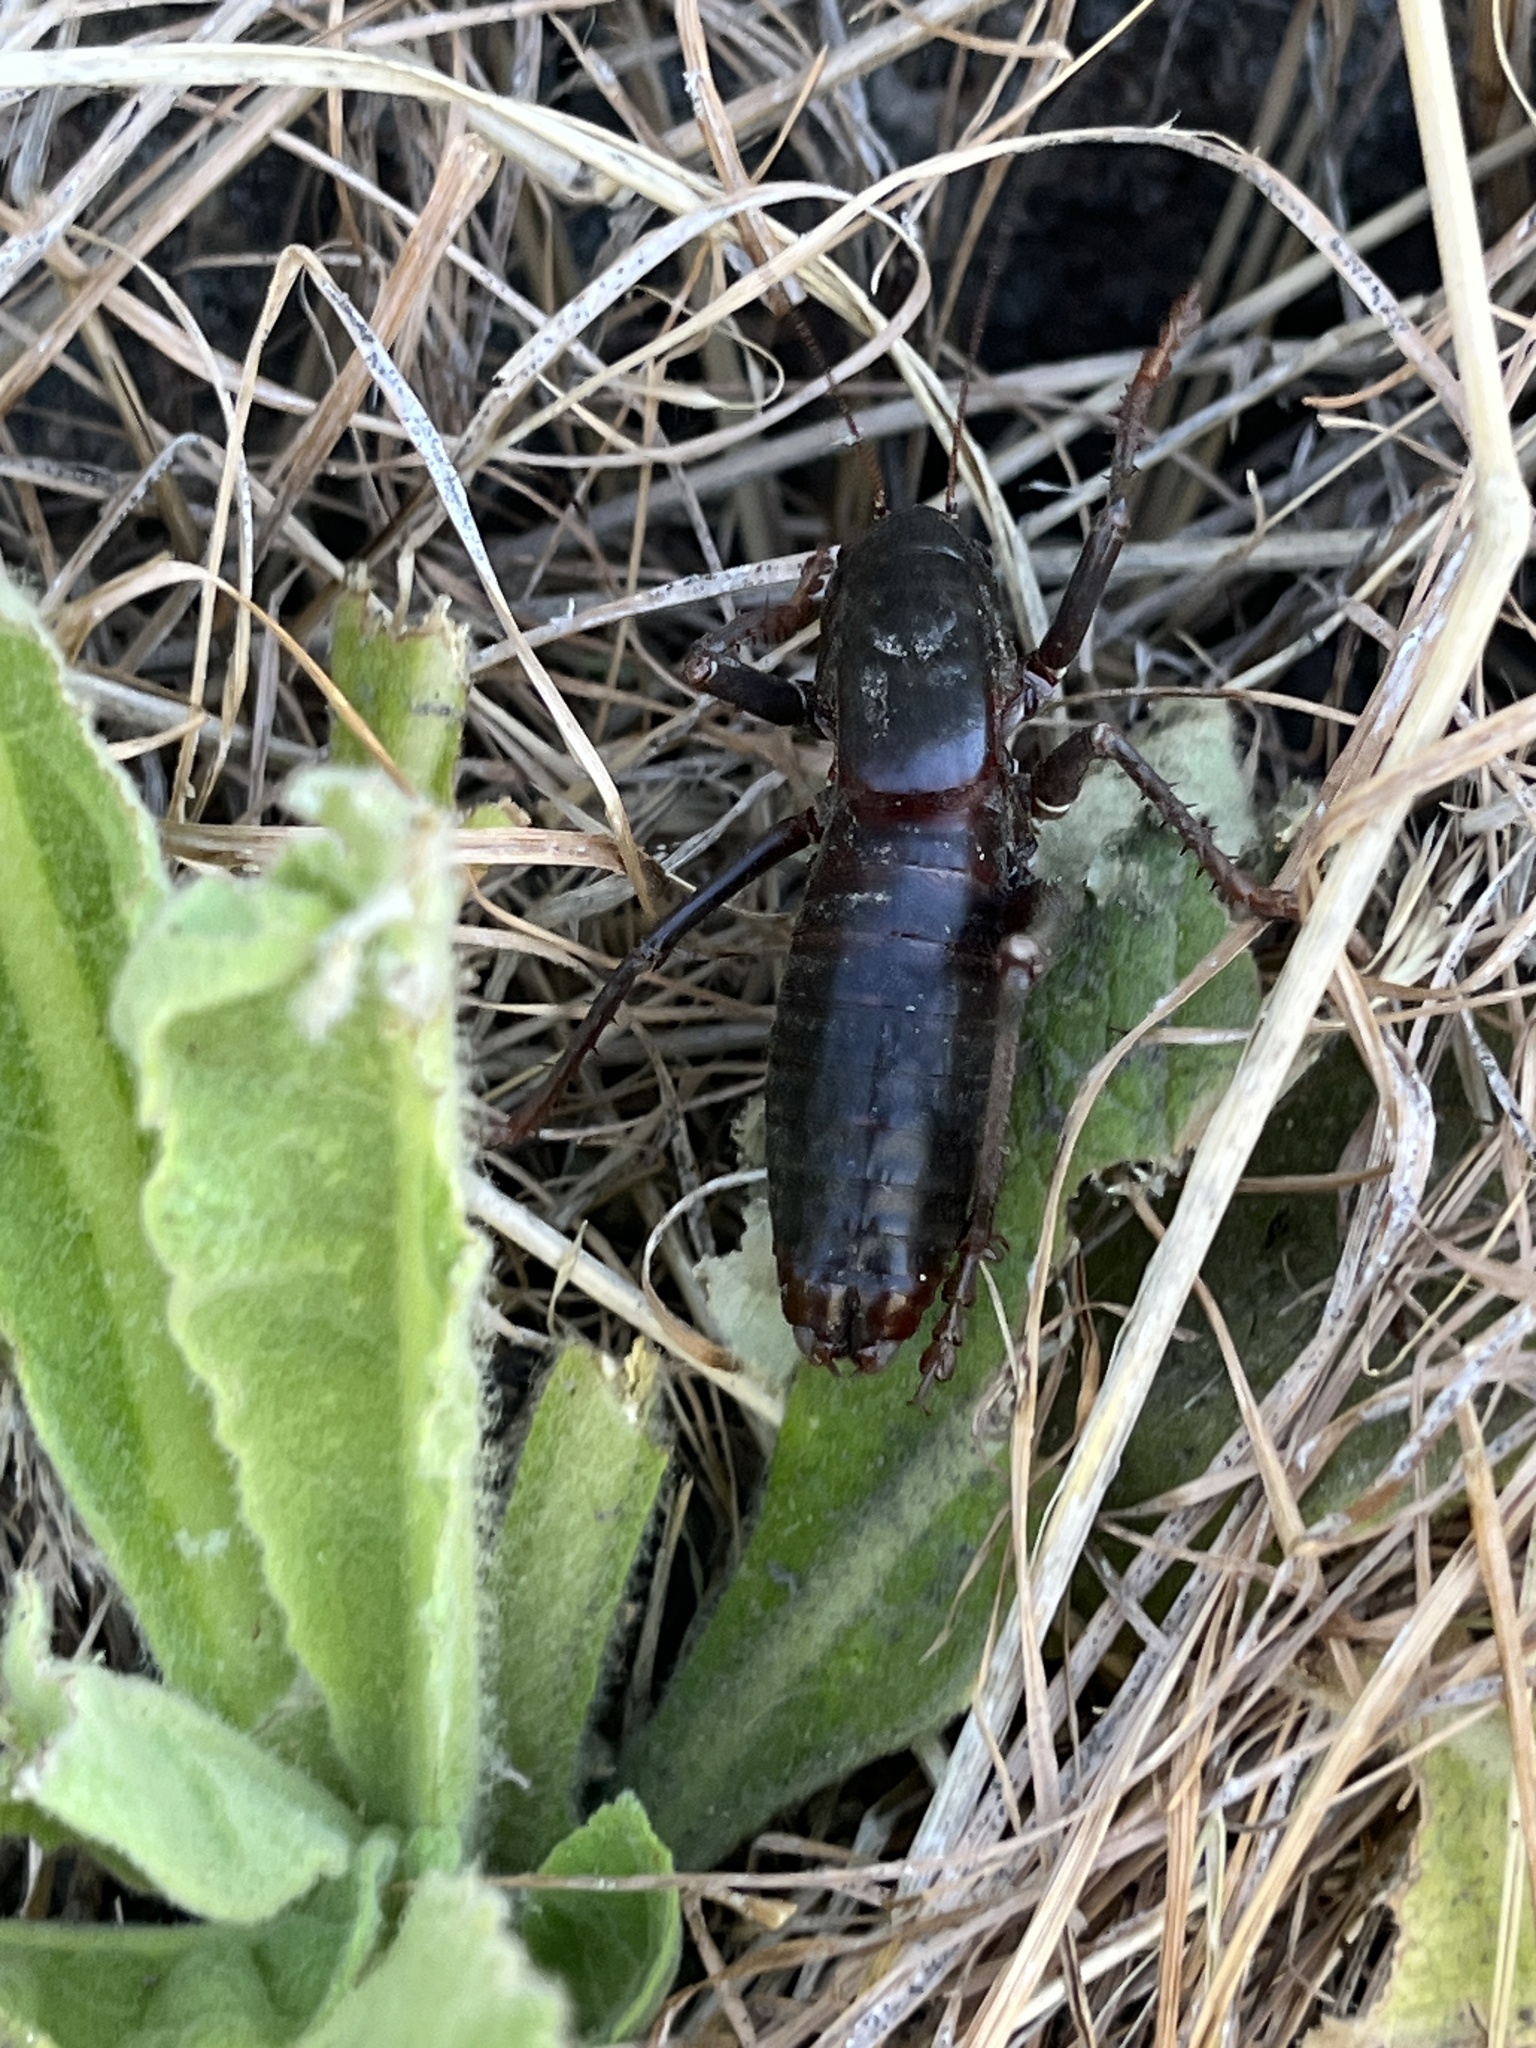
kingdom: Animalia
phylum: Arthropoda
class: Insecta
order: Orthoptera
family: Tettigoniidae
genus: Anabrus
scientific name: Anabrus simplex
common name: Mormon cricket
